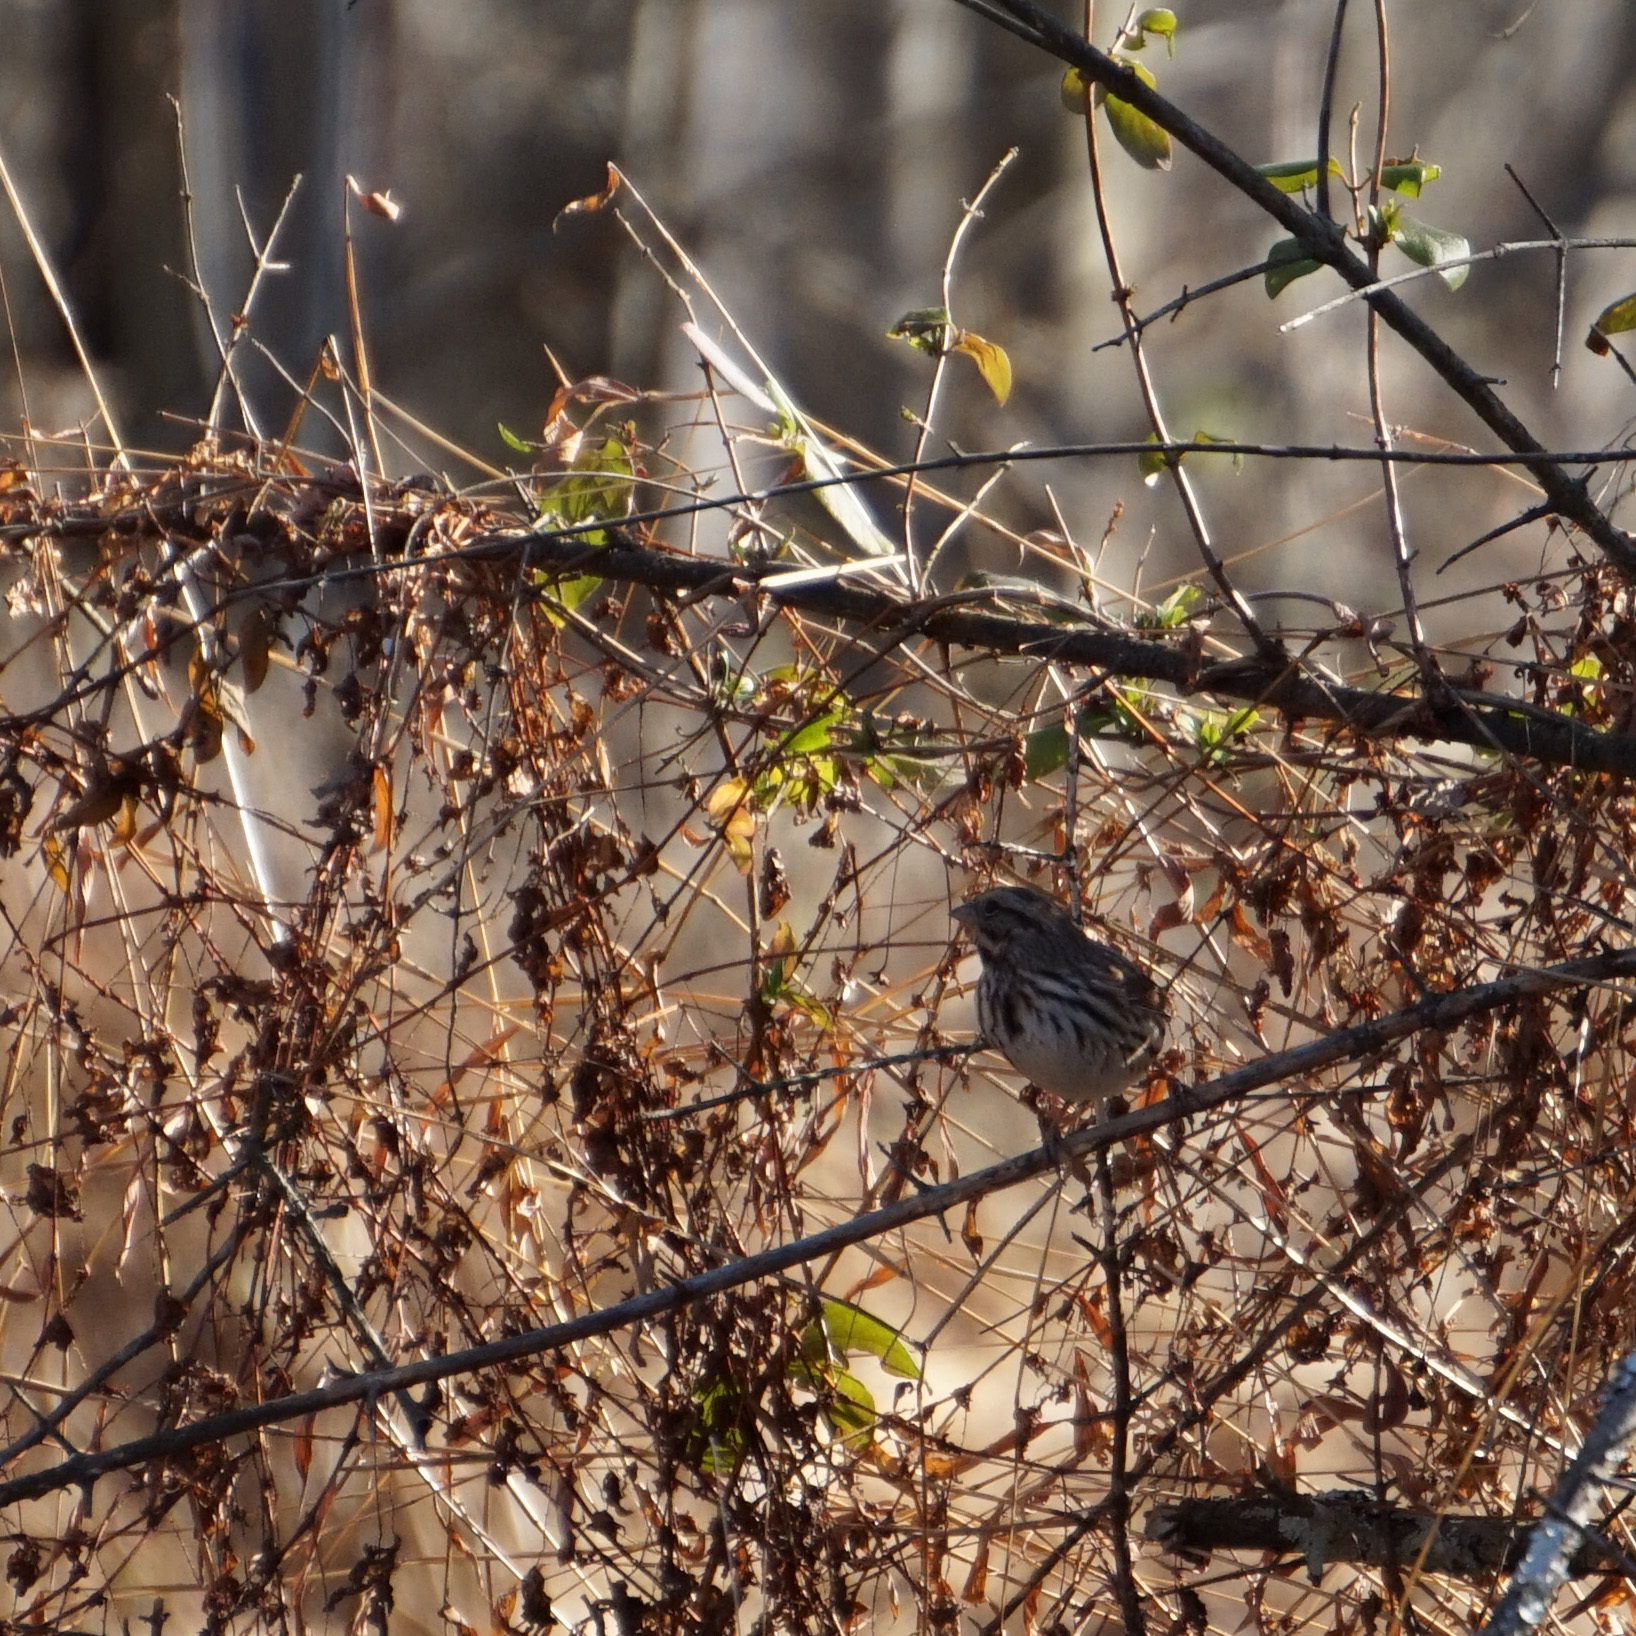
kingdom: Animalia
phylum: Chordata
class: Aves
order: Passeriformes
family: Passerellidae
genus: Melospiza
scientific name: Melospiza melodia
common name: Song sparrow
